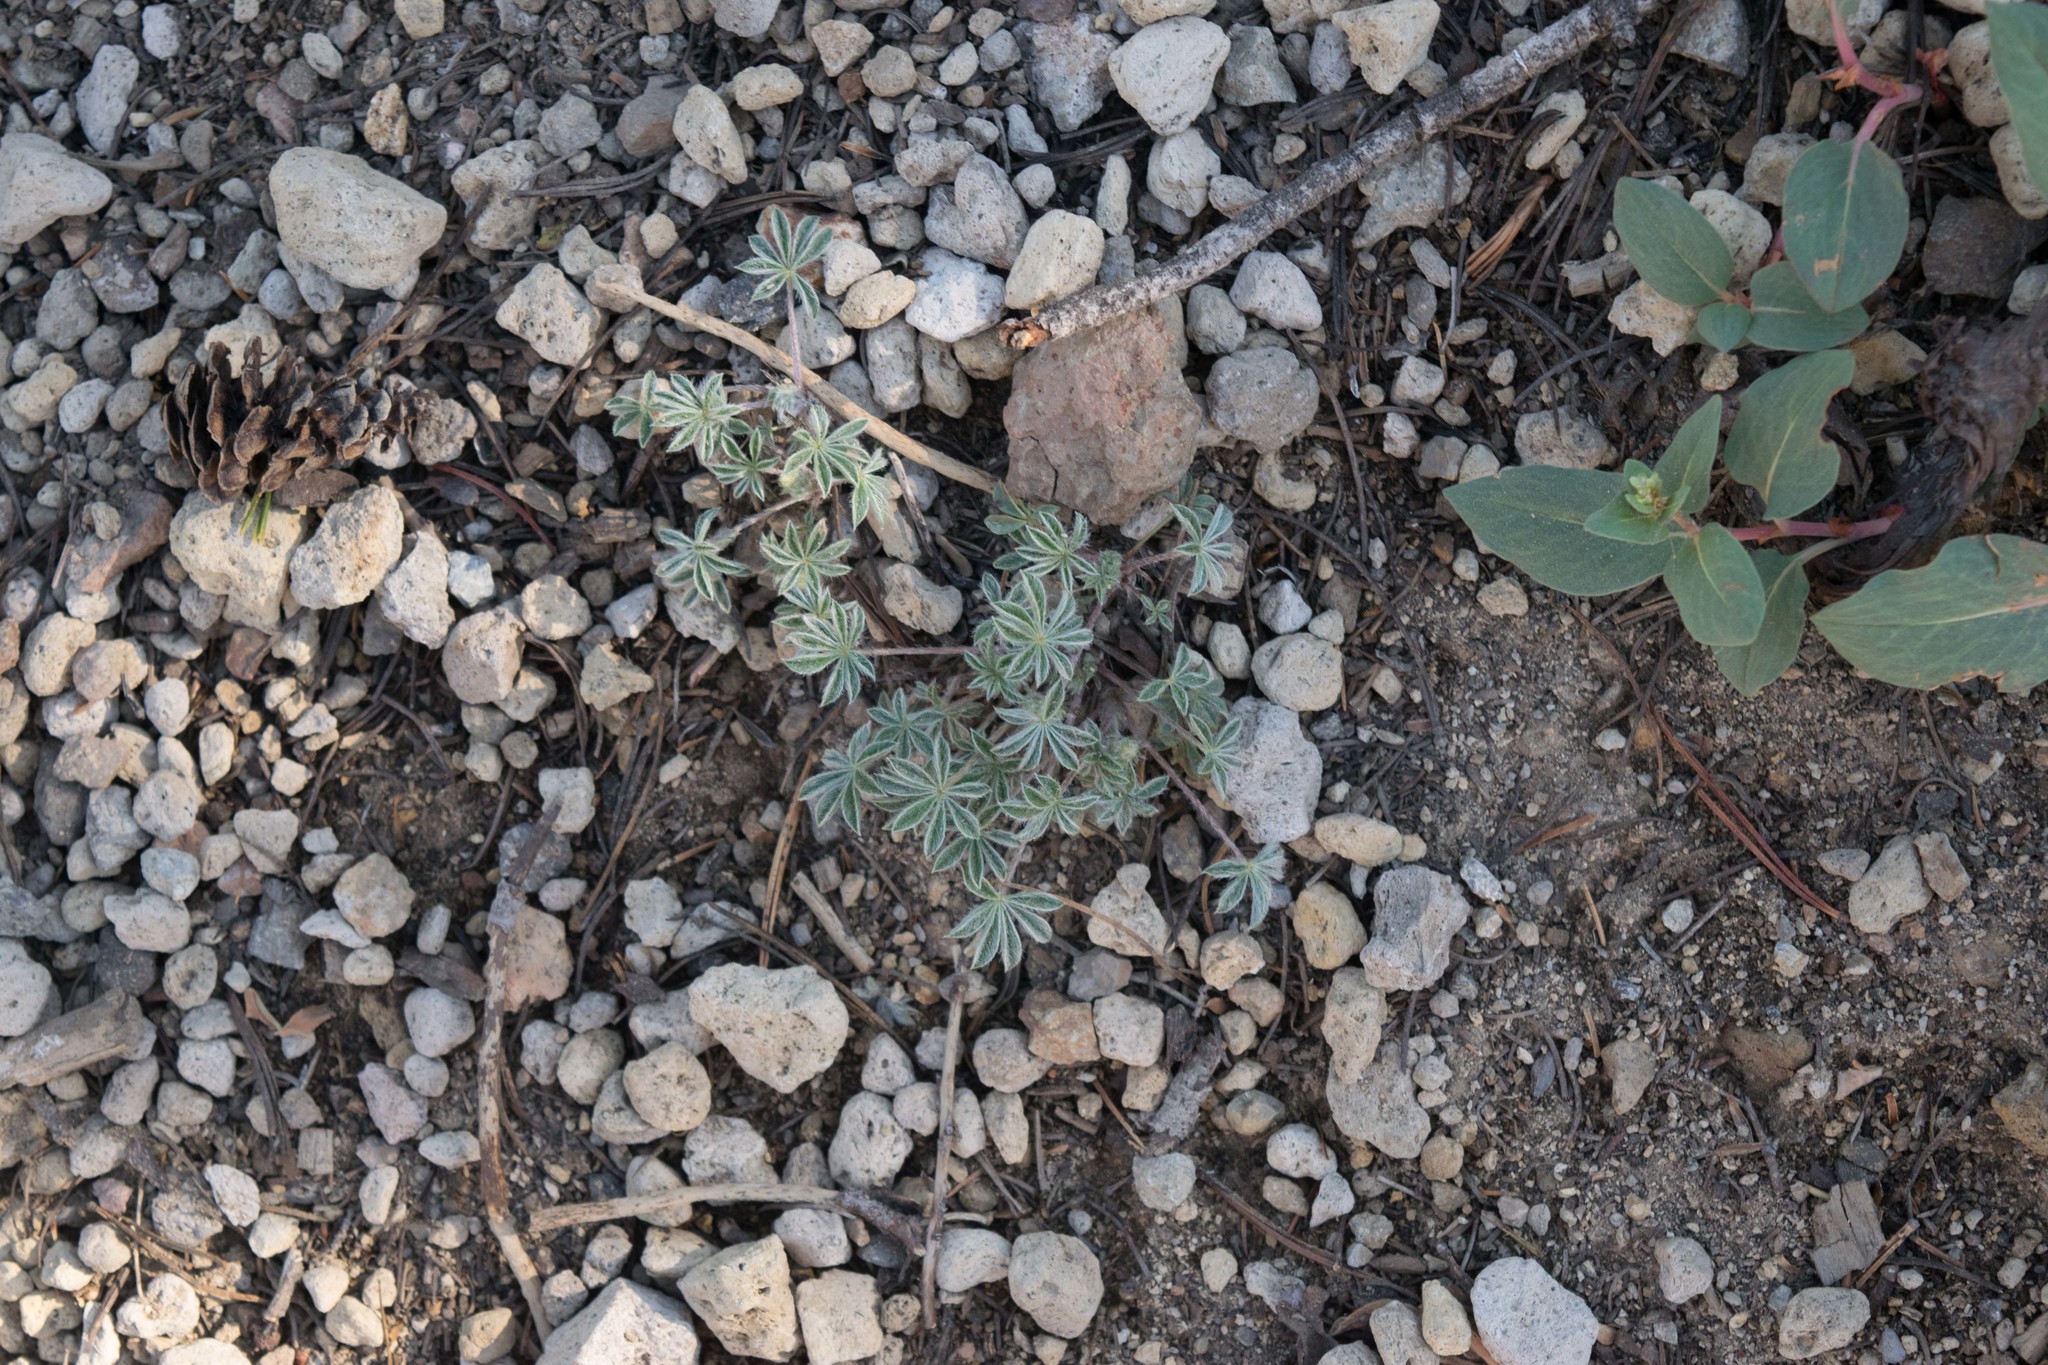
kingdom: Plantae
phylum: Tracheophyta
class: Magnoliopsida
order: Fabales
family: Fabaceae
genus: Lupinus
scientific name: Lupinus lepidus
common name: Prairie lupine
